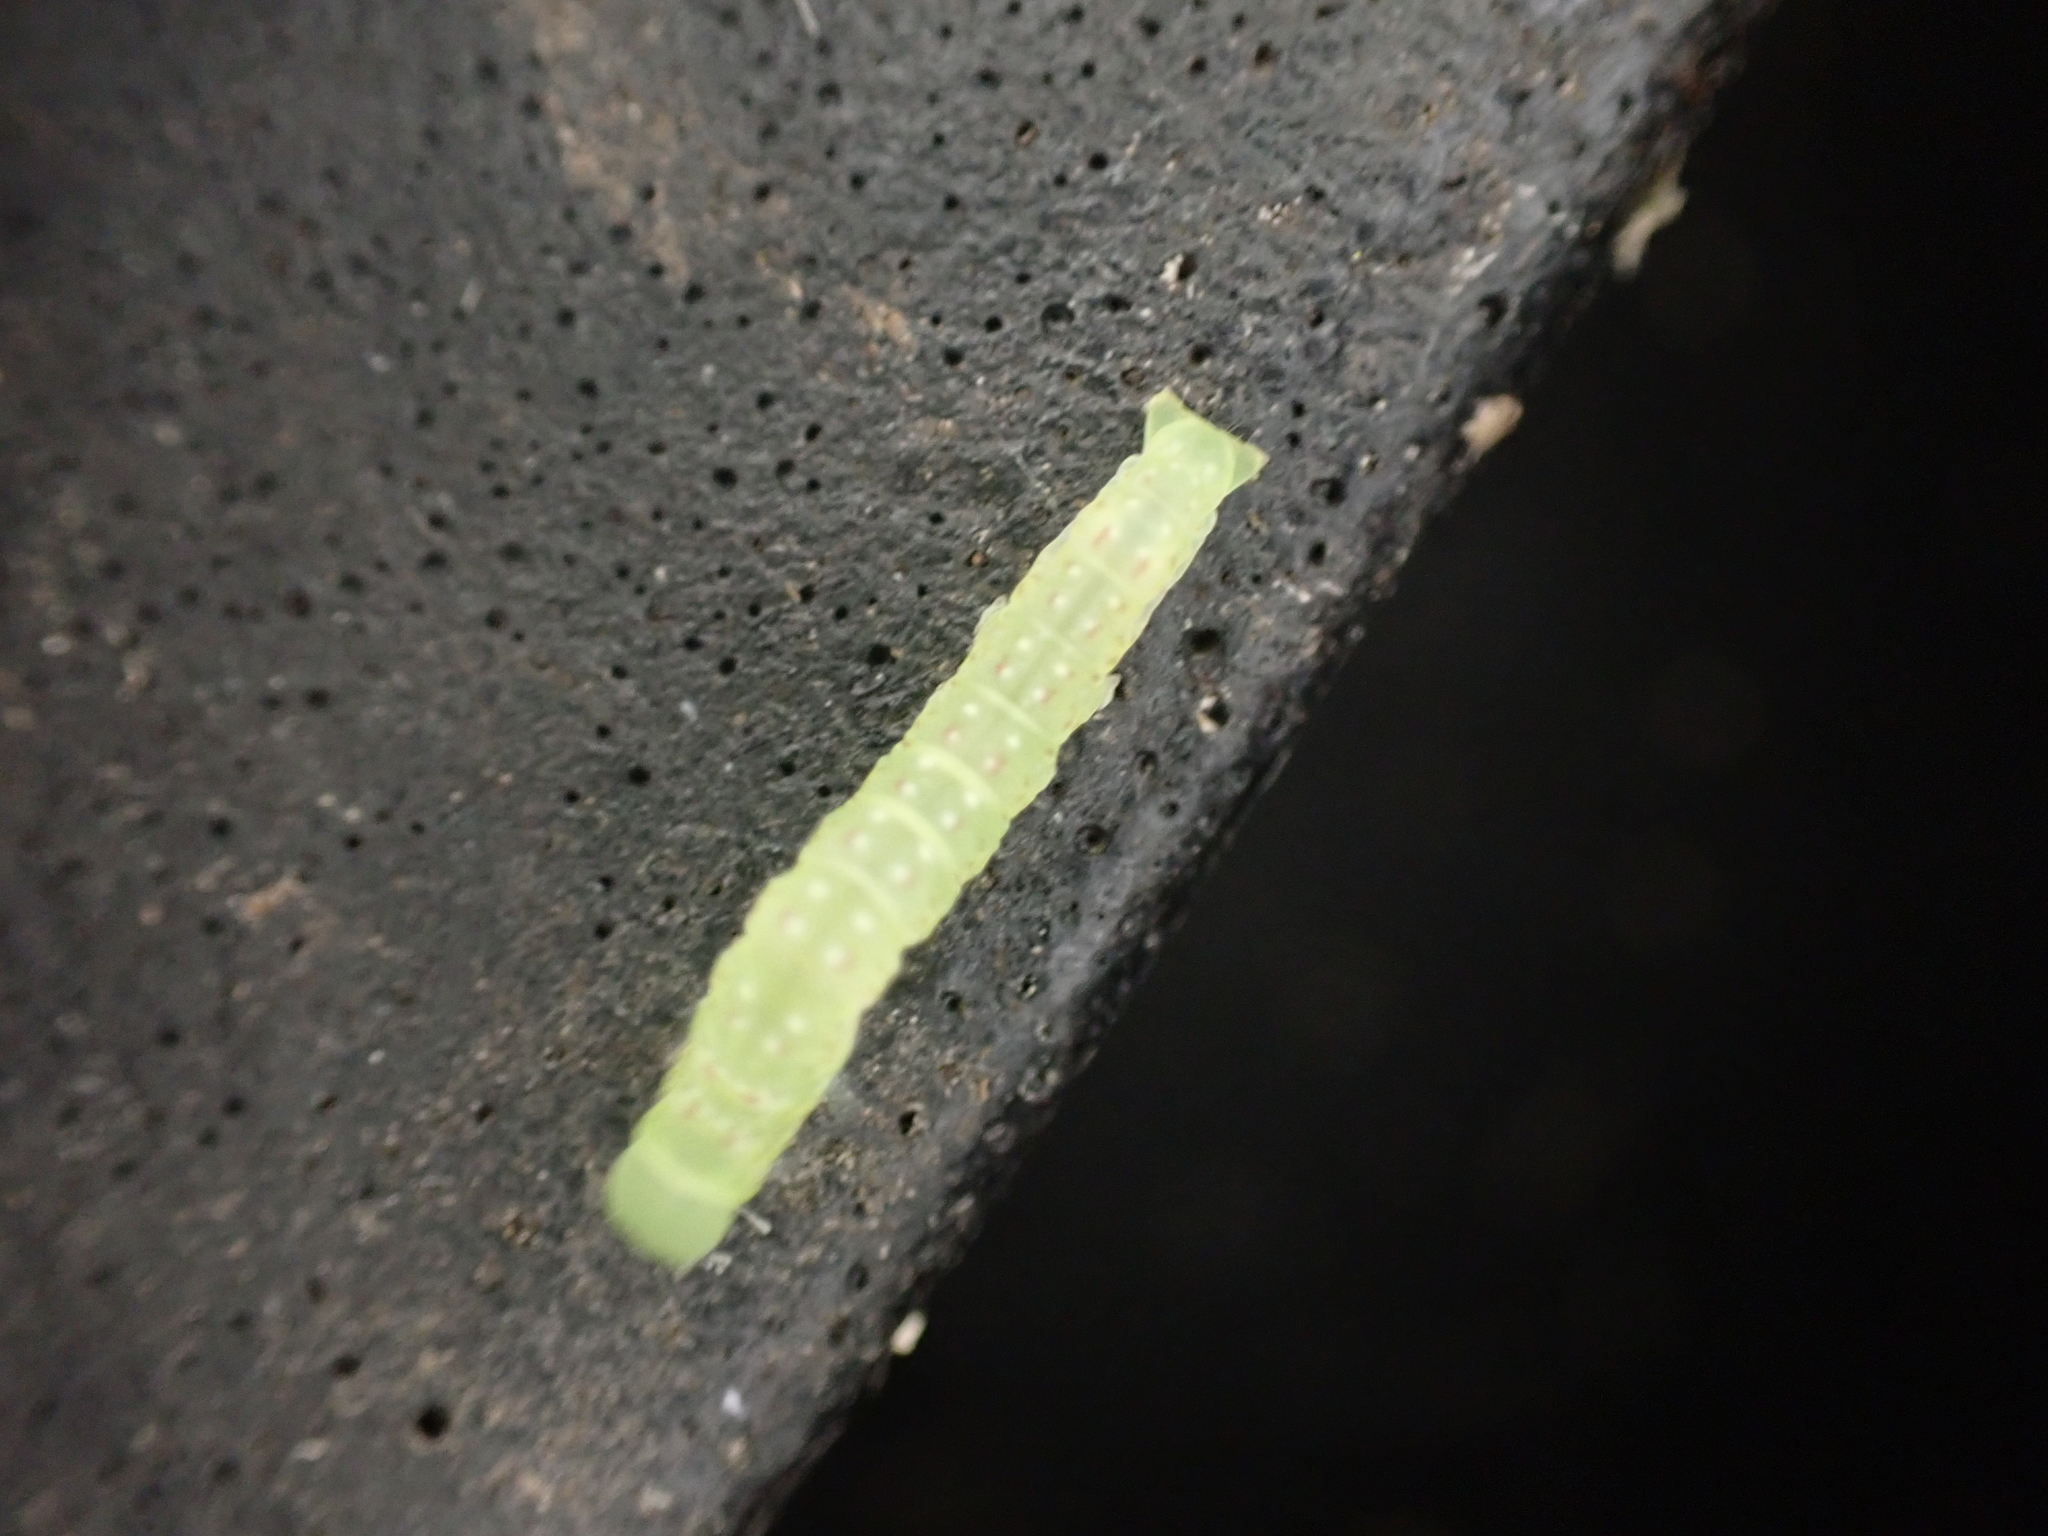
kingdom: Animalia
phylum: Arthropoda
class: Insecta
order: Lepidoptera
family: Erebidae
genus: Hypsoropha
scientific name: Hypsoropha hormos
